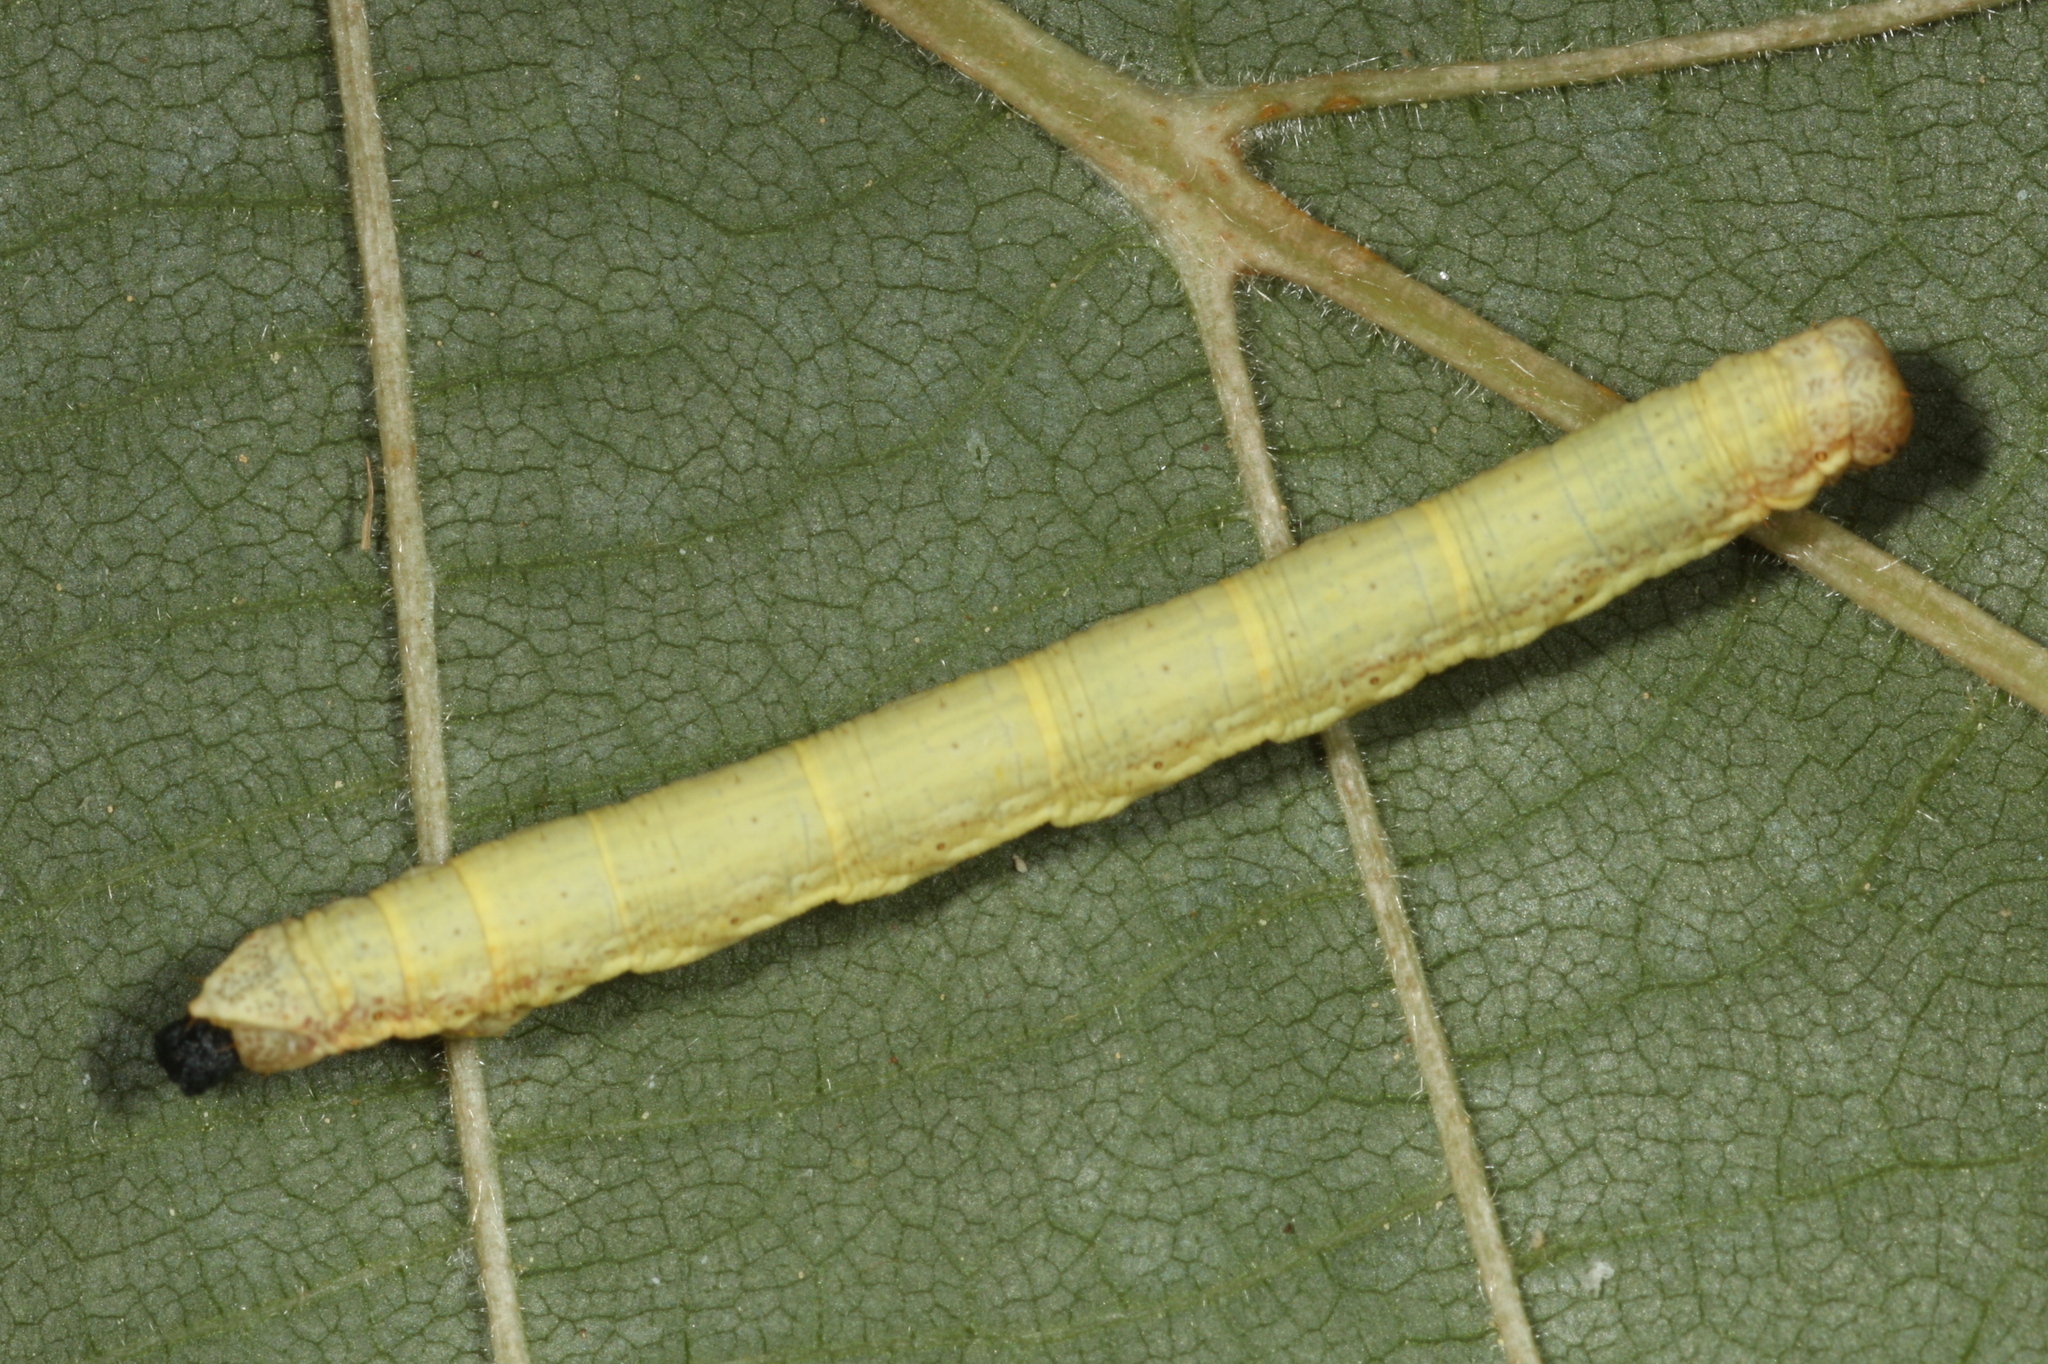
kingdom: Animalia
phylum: Arthropoda
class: Insecta
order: Lepidoptera
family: Geometridae
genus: Ematurga
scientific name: Ematurga atomaria
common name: Common heath
